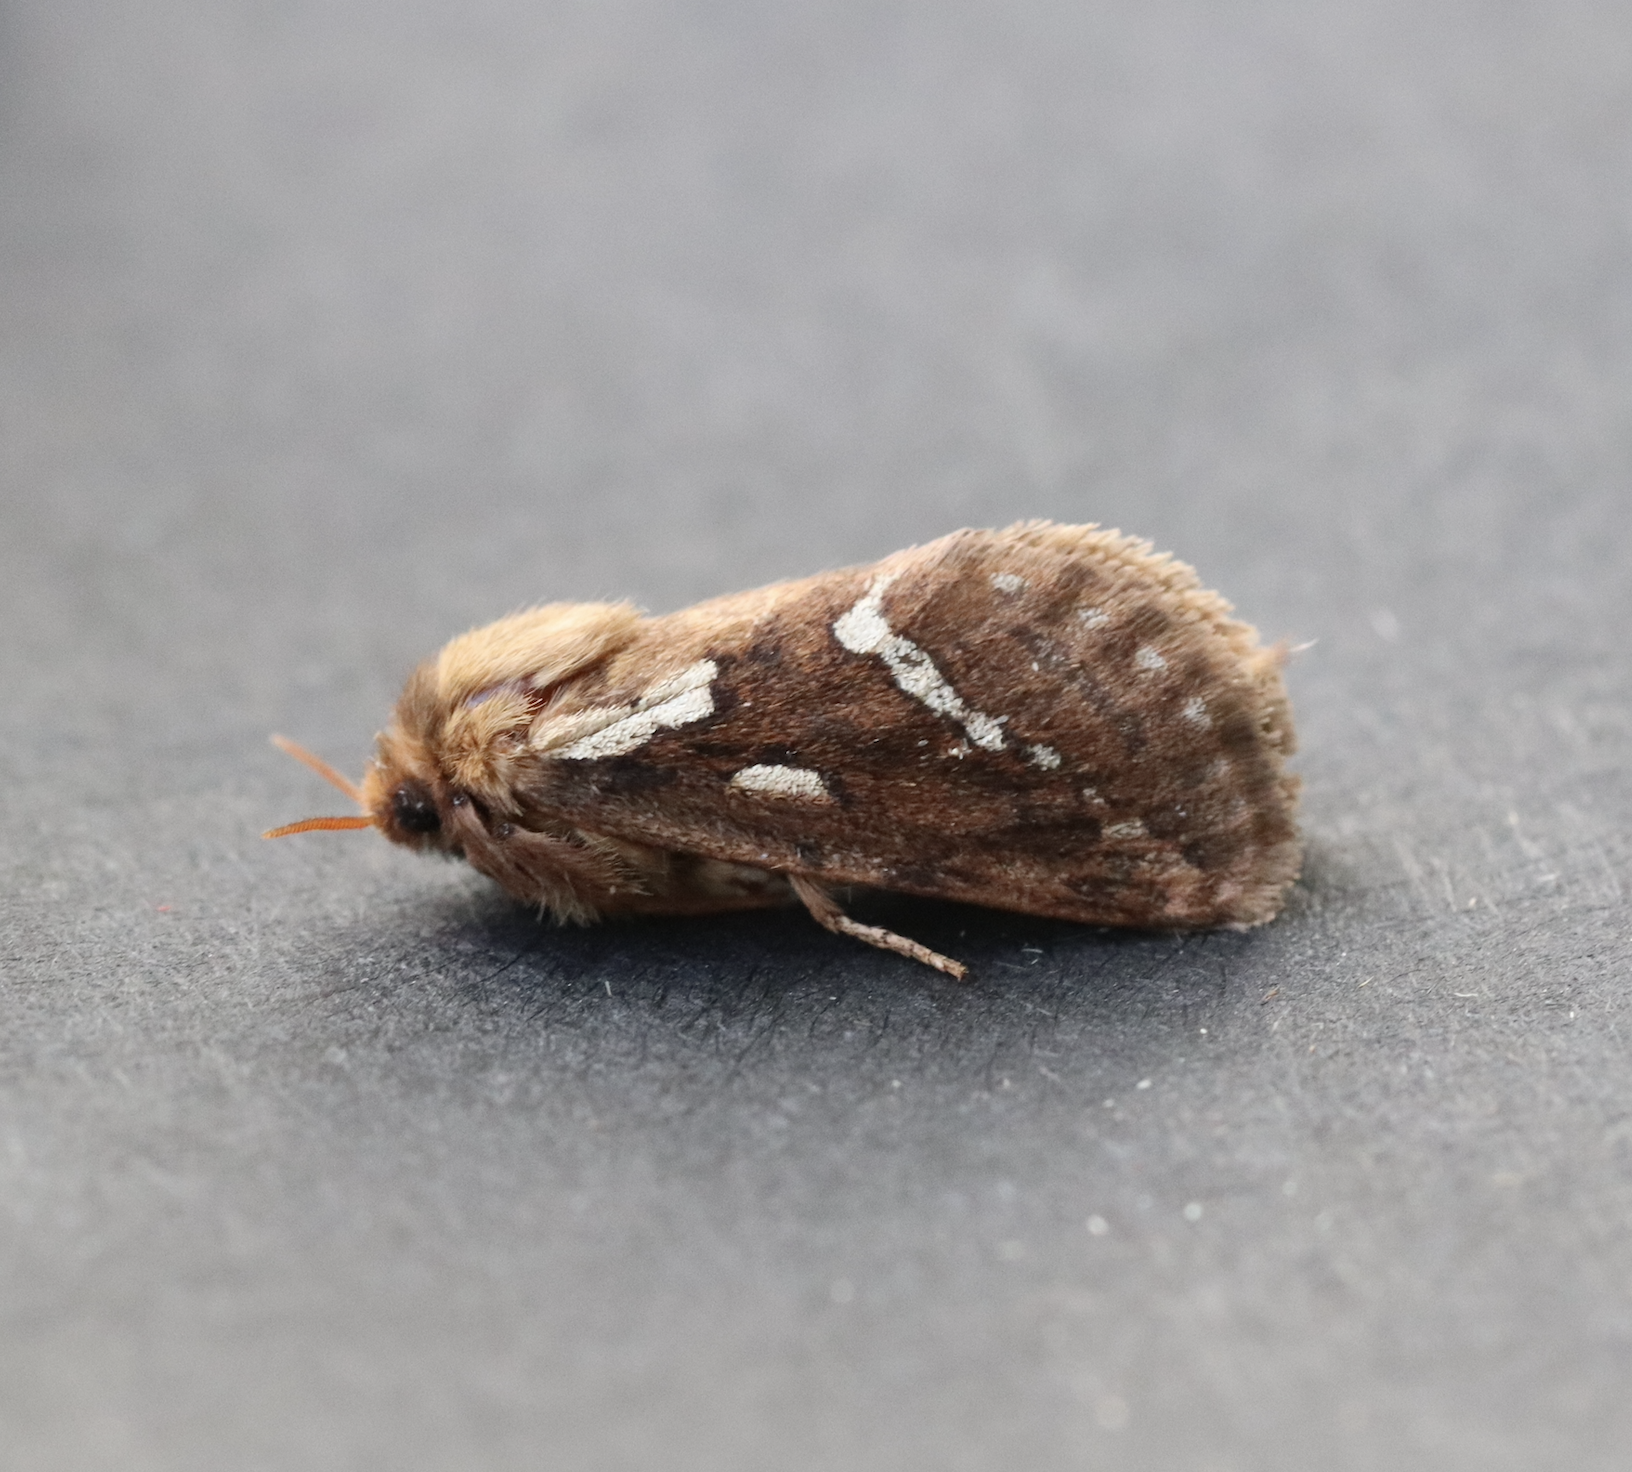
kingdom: Animalia
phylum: Arthropoda
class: Insecta
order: Lepidoptera
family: Hepialidae
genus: Korscheltellus
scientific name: Korscheltellus lupulina
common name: Common swift
